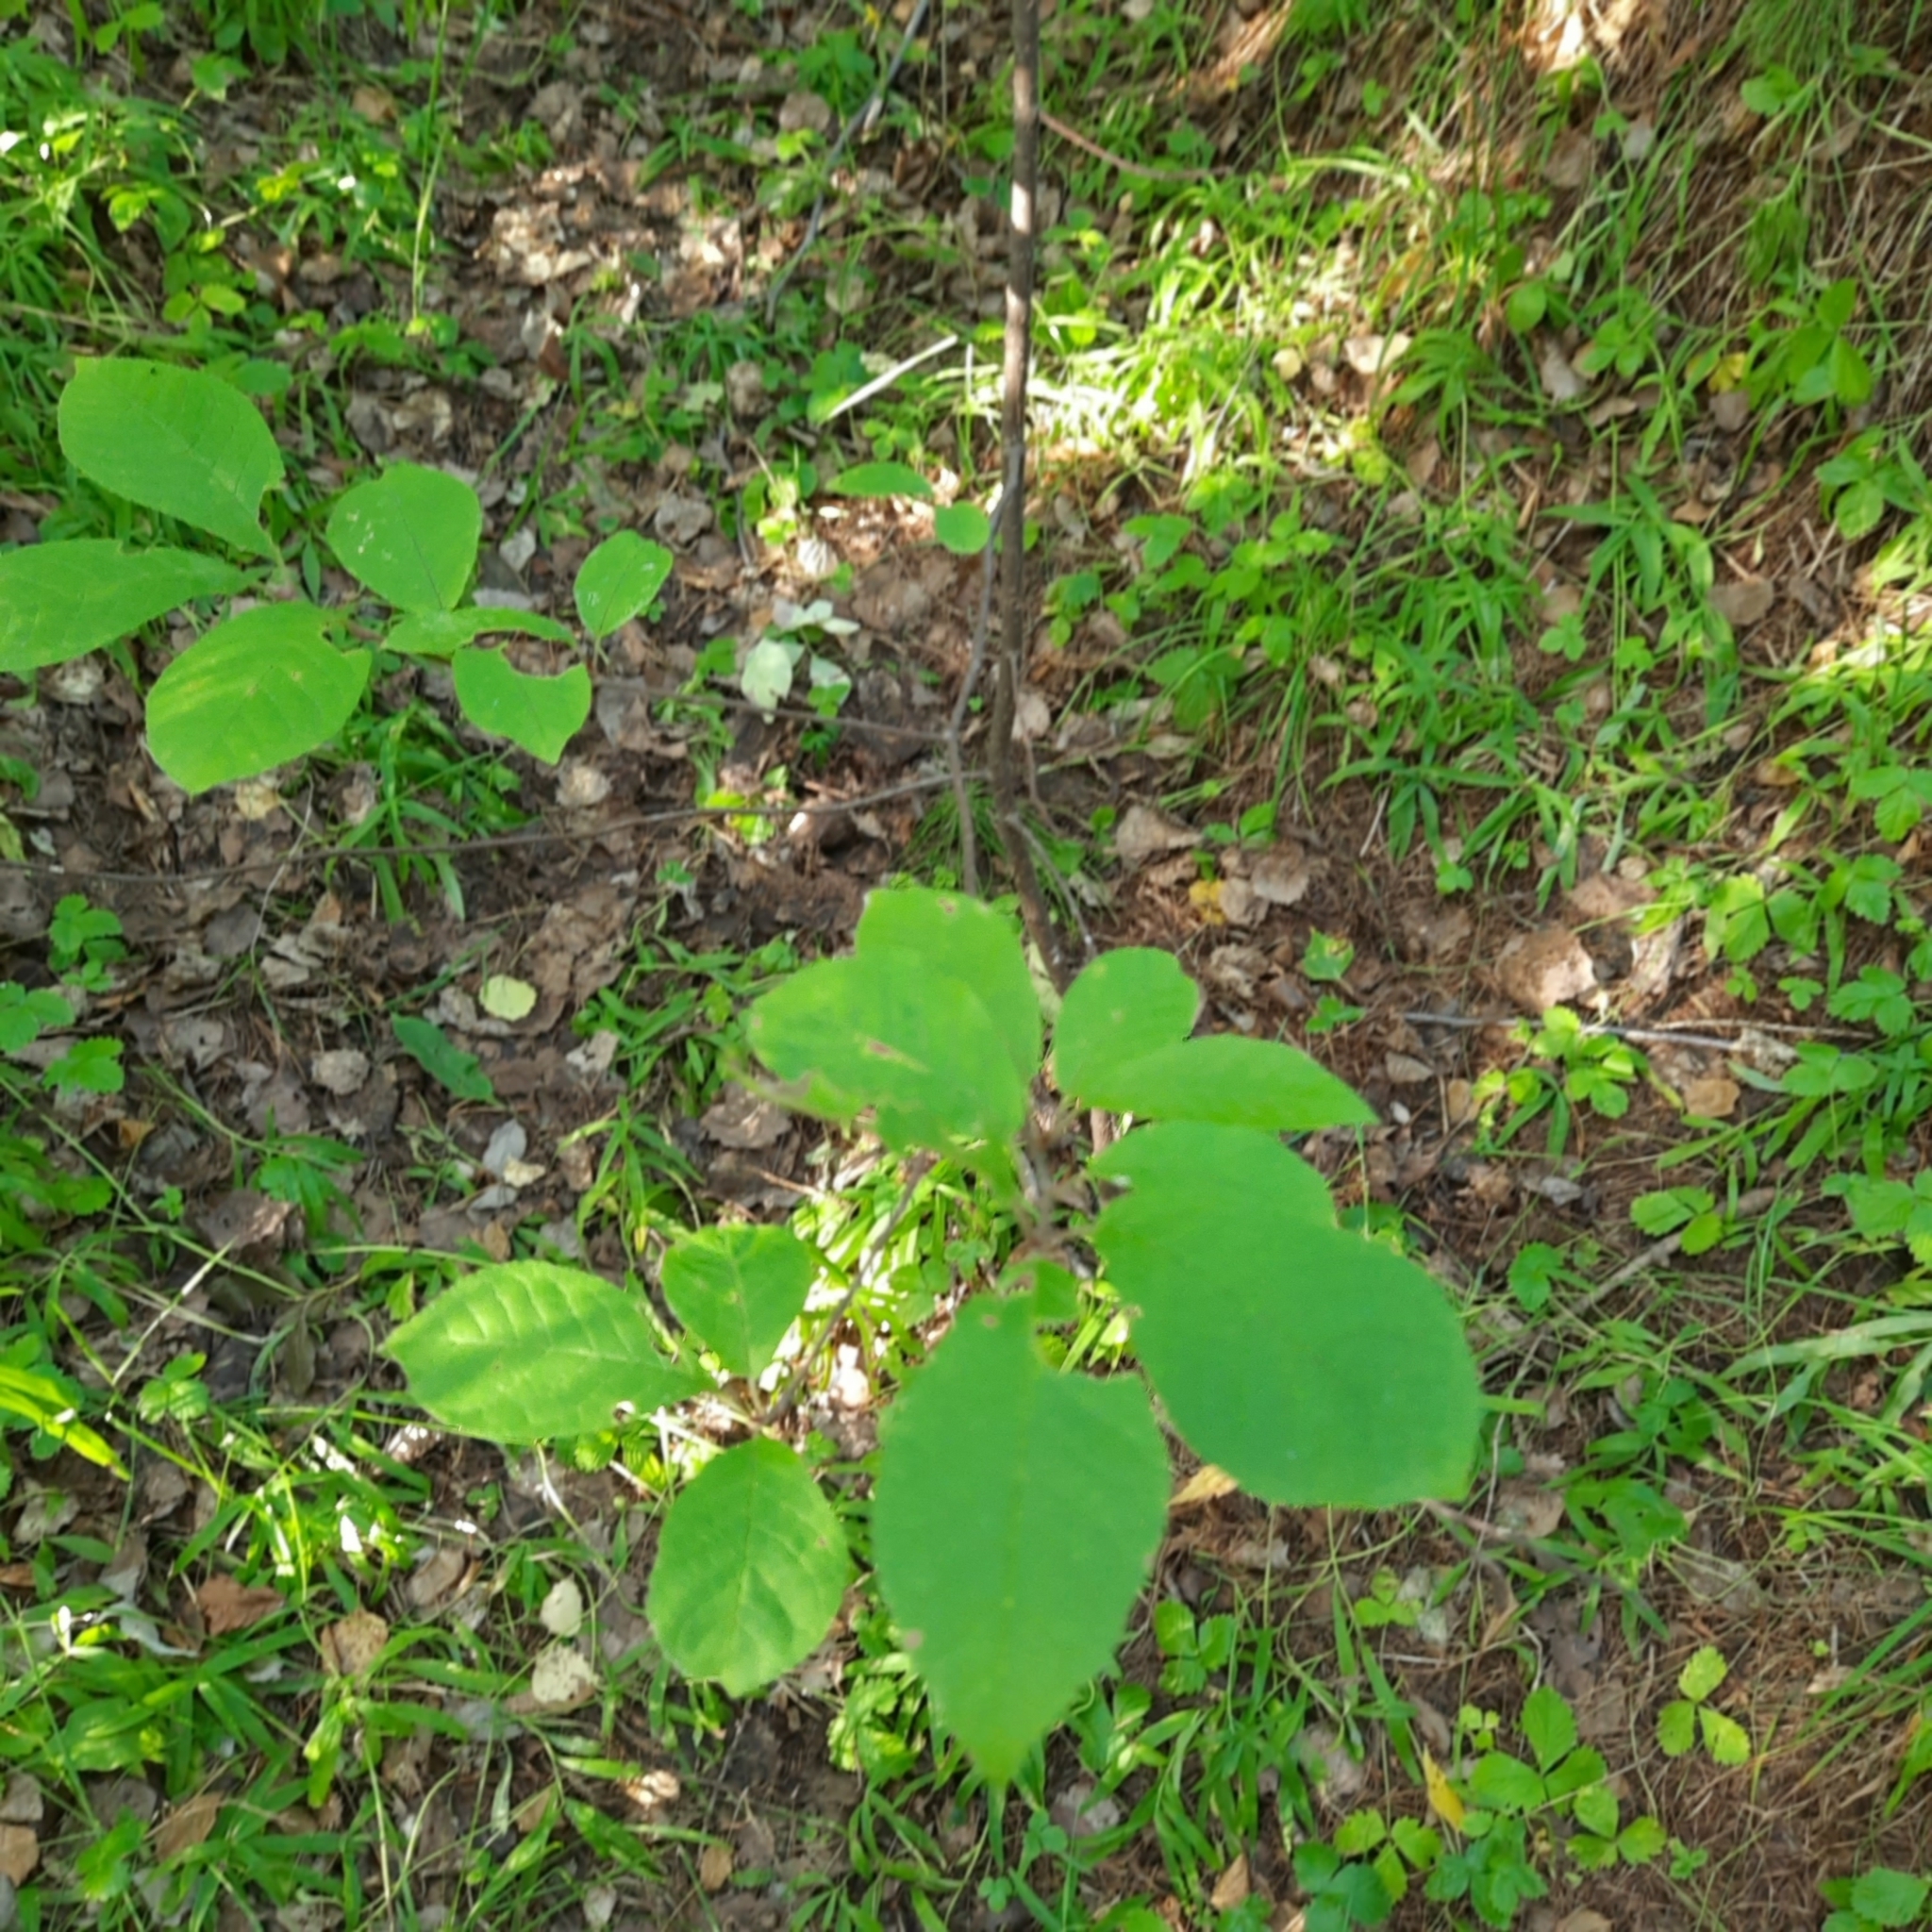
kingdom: Plantae
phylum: Tracheophyta
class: Magnoliopsida
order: Rosales
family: Rosaceae
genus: Prunus
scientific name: Prunus padus
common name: Bird cherry
